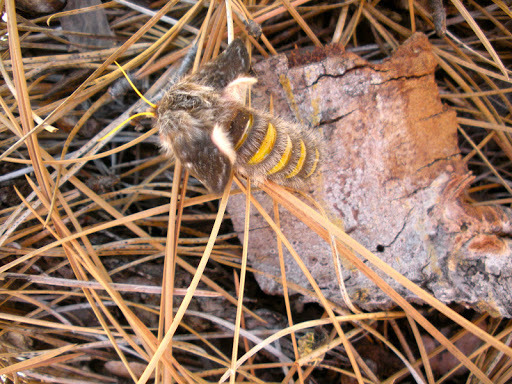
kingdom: Animalia
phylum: Arthropoda
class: Insecta
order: Lepidoptera
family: Saturniidae
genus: Coloradia
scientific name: Coloradia pandora
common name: Pandora pinemoth
